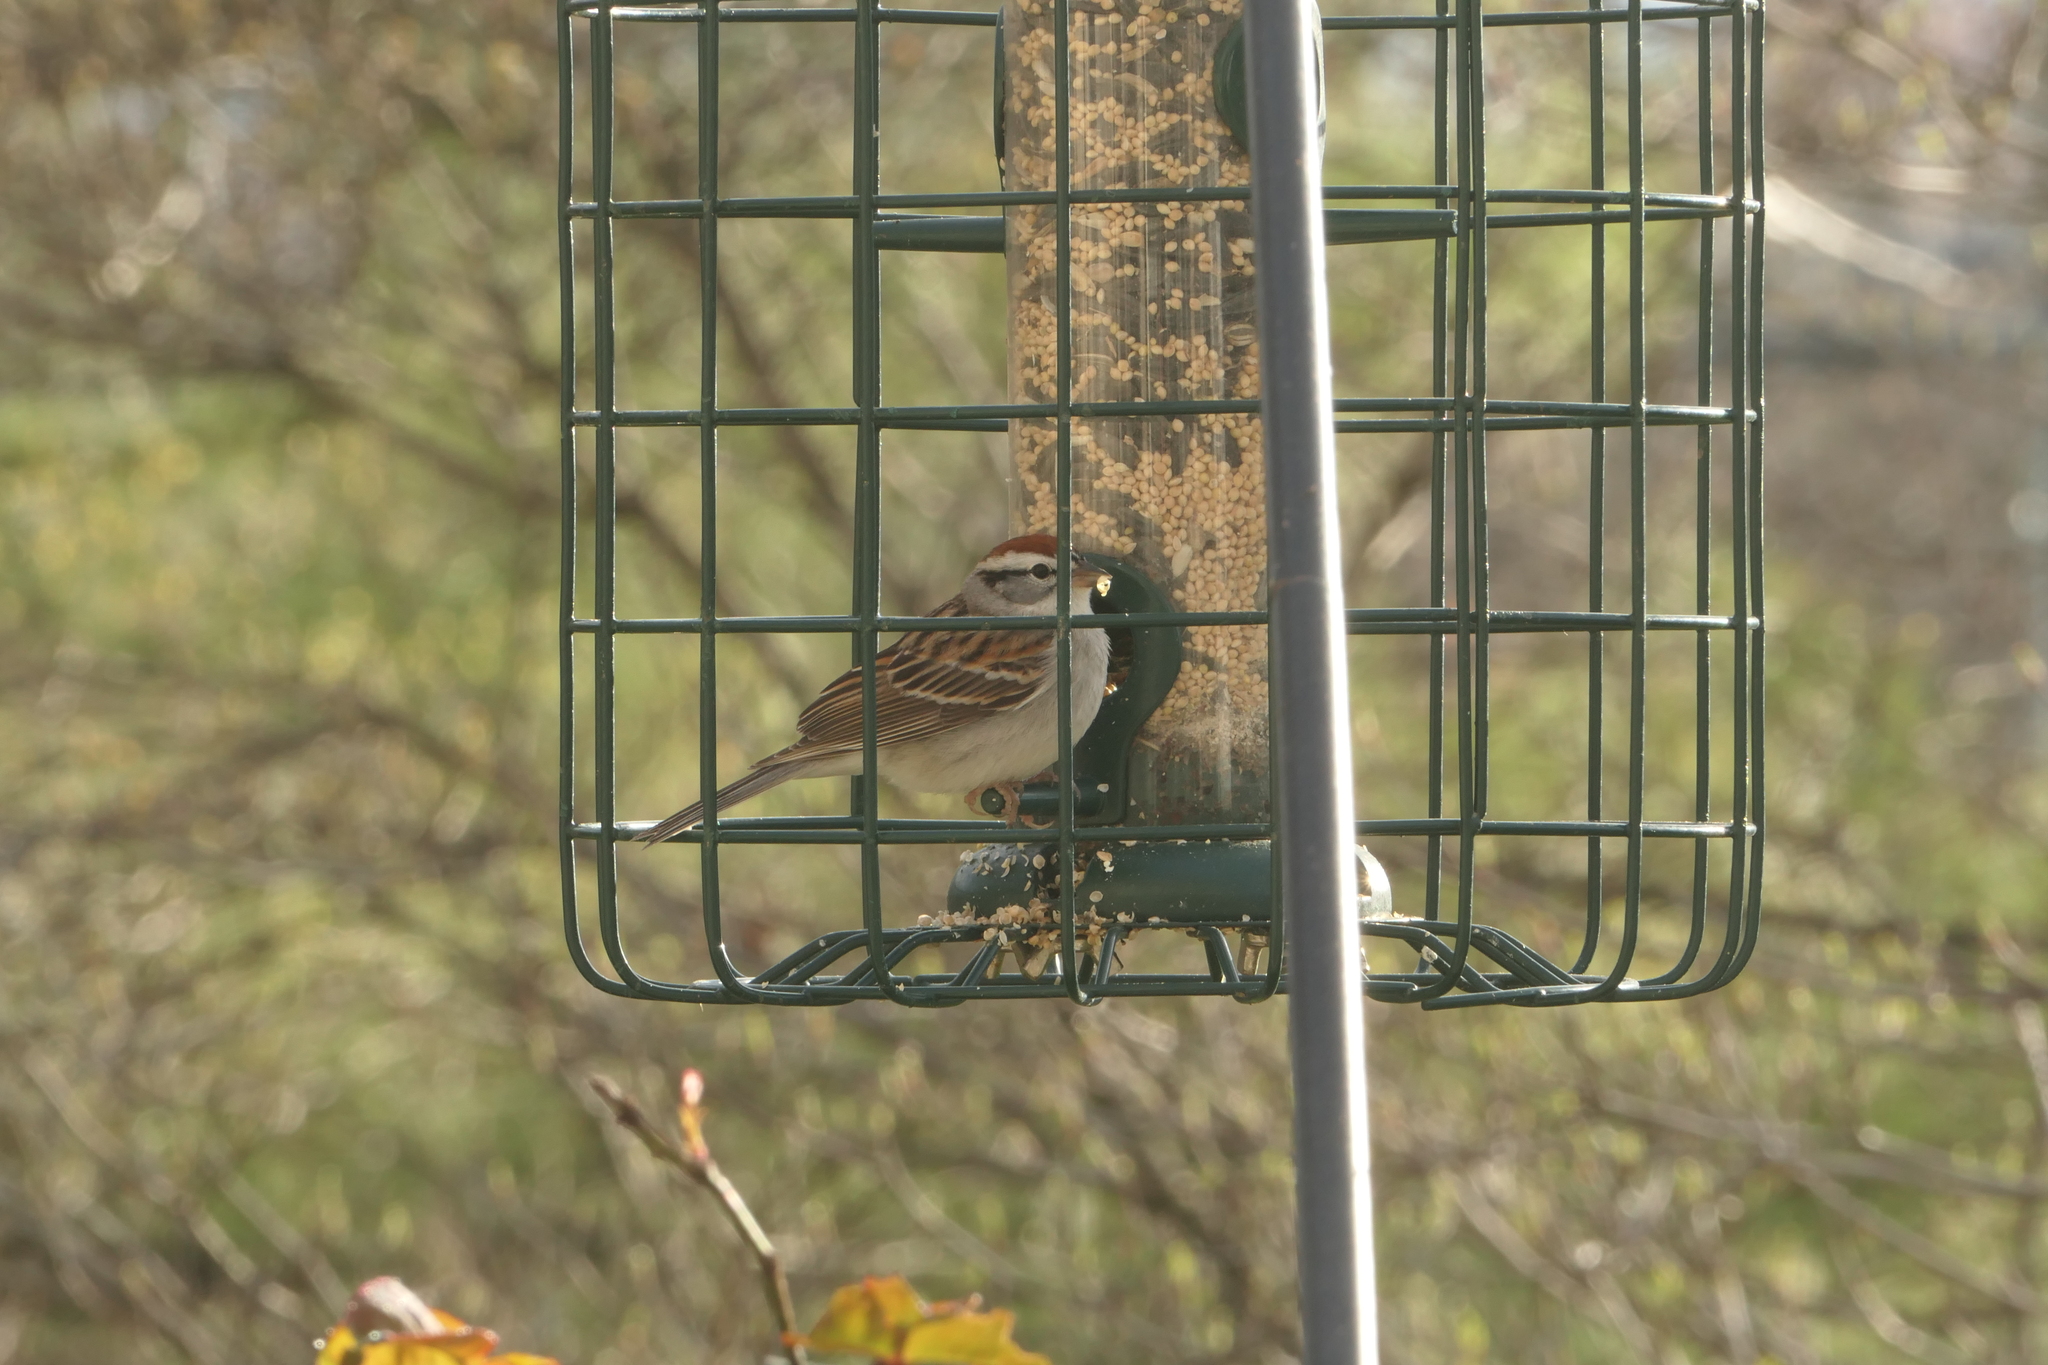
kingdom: Animalia
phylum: Chordata
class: Aves
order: Passeriformes
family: Passerellidae
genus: Spizella
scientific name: Spizella passerina
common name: Chipping sparrow
